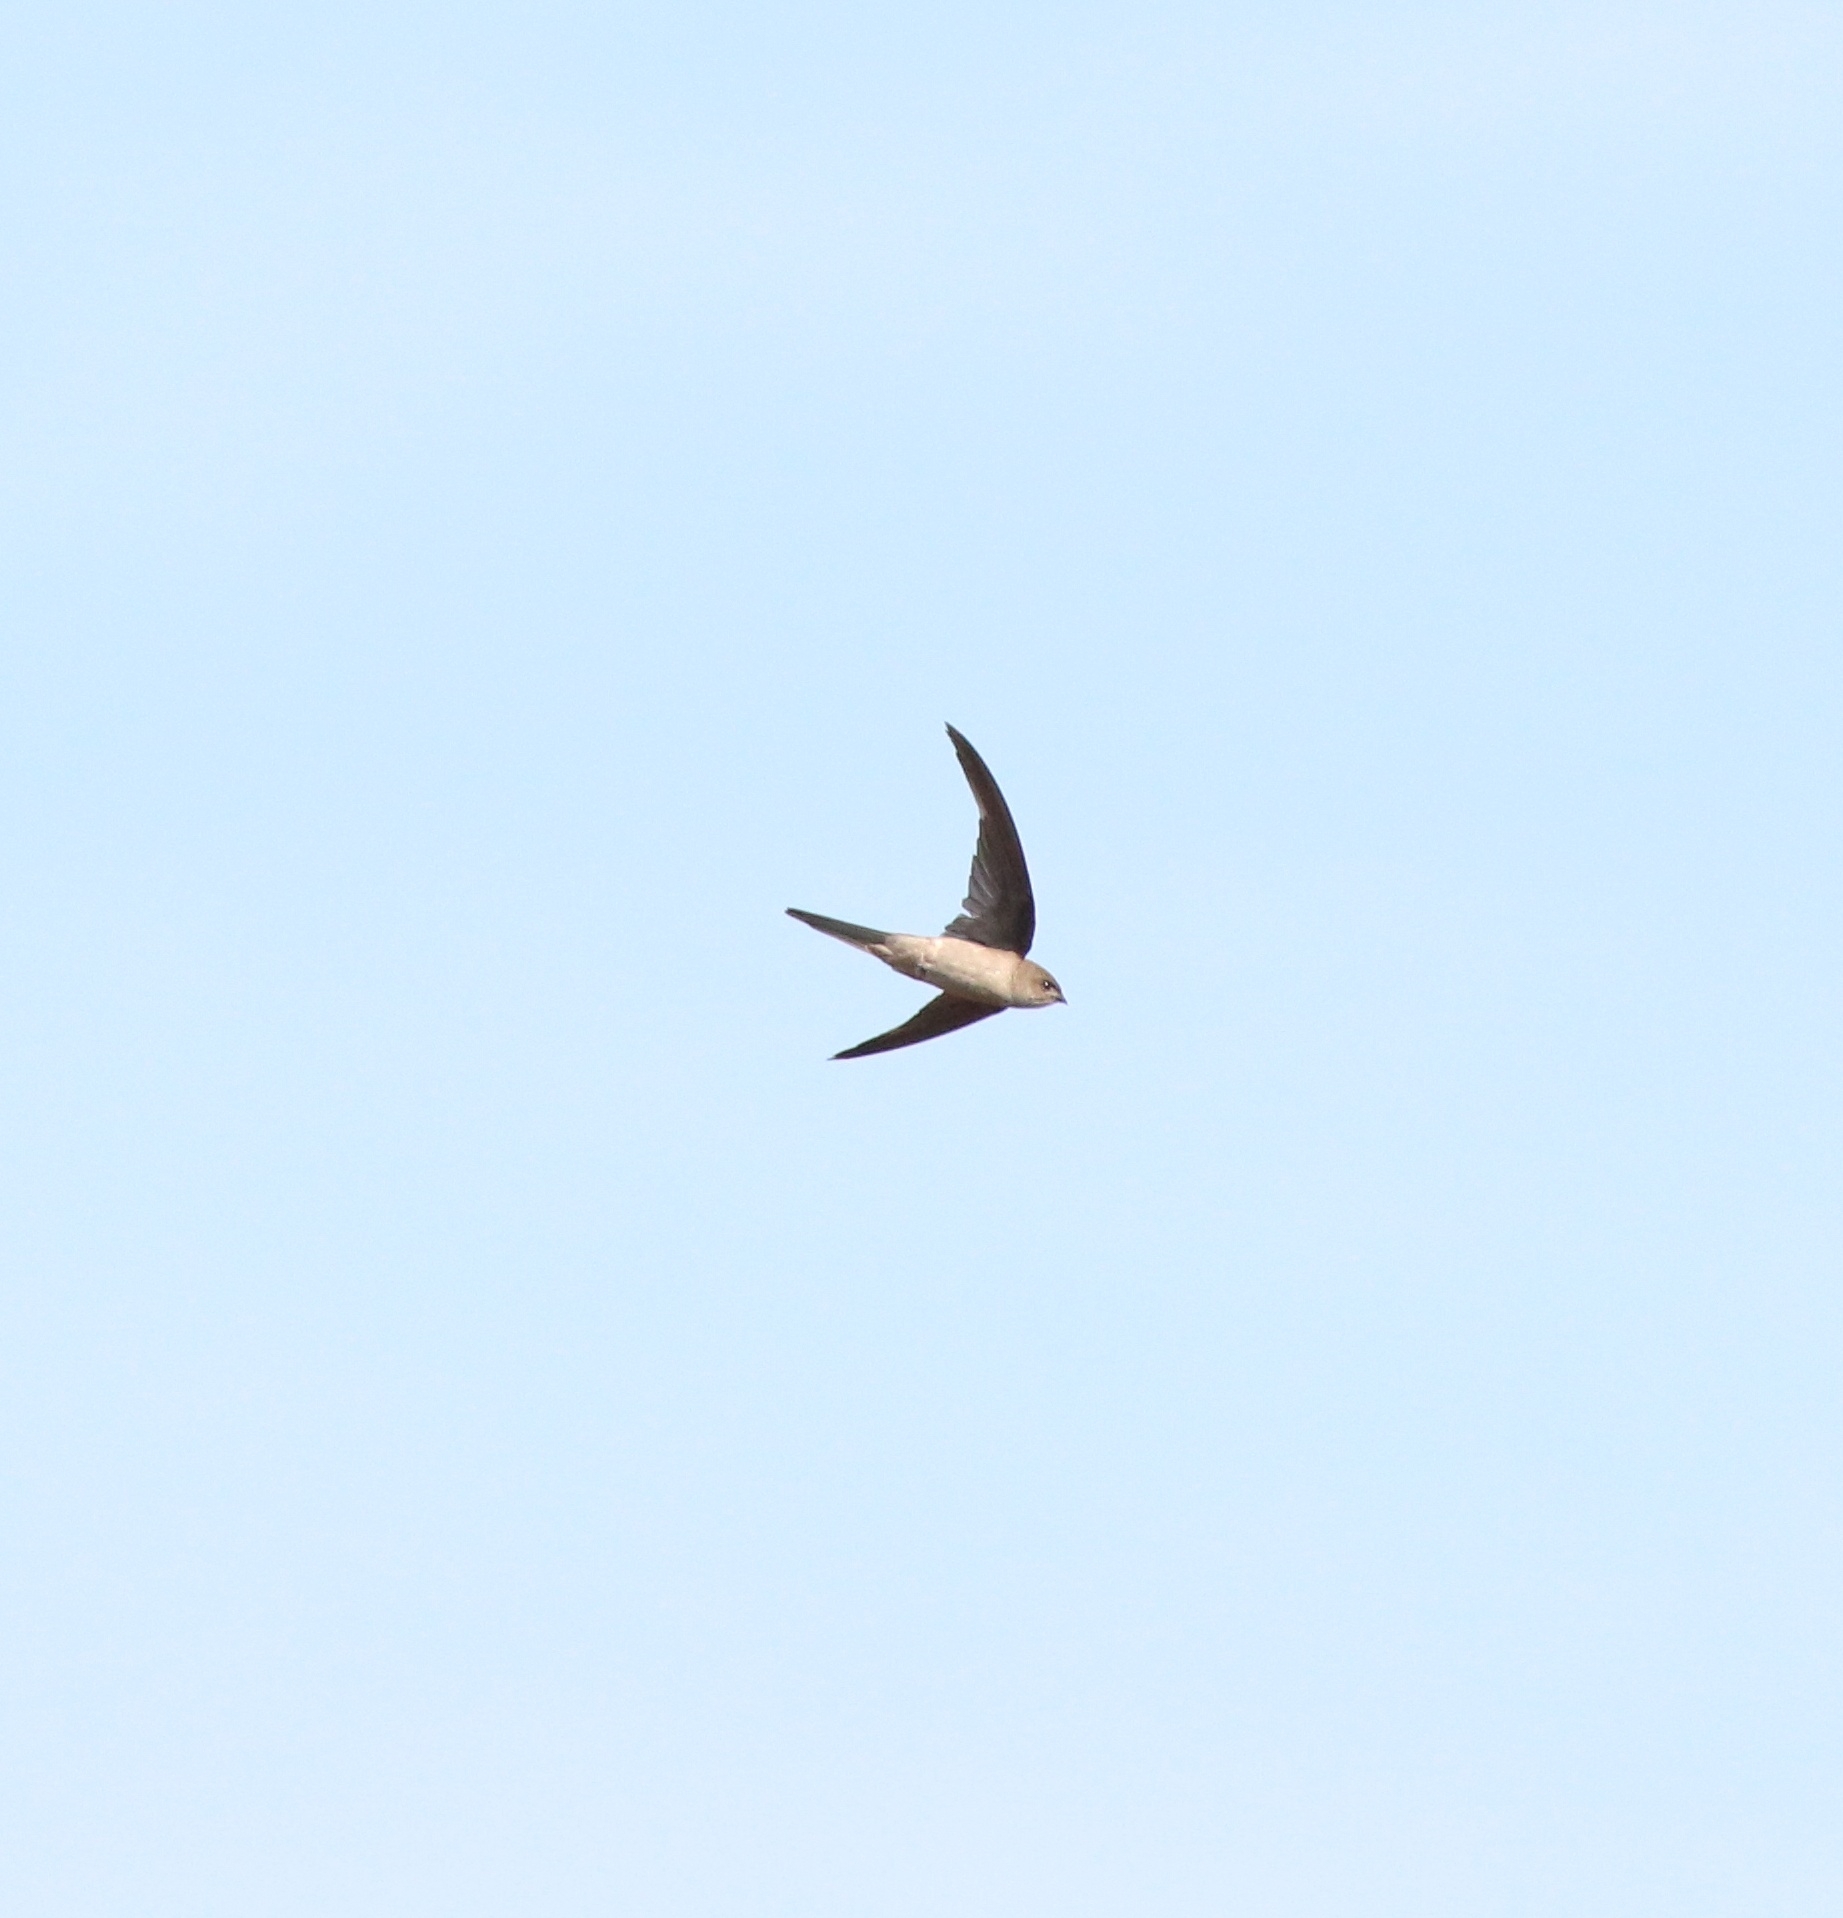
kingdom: Animalia
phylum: Chordata
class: Aves
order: Apodiformes
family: Apodidae
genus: Cypsiurus
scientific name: Cypsiurus balasiensis
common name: Asian palm swift
